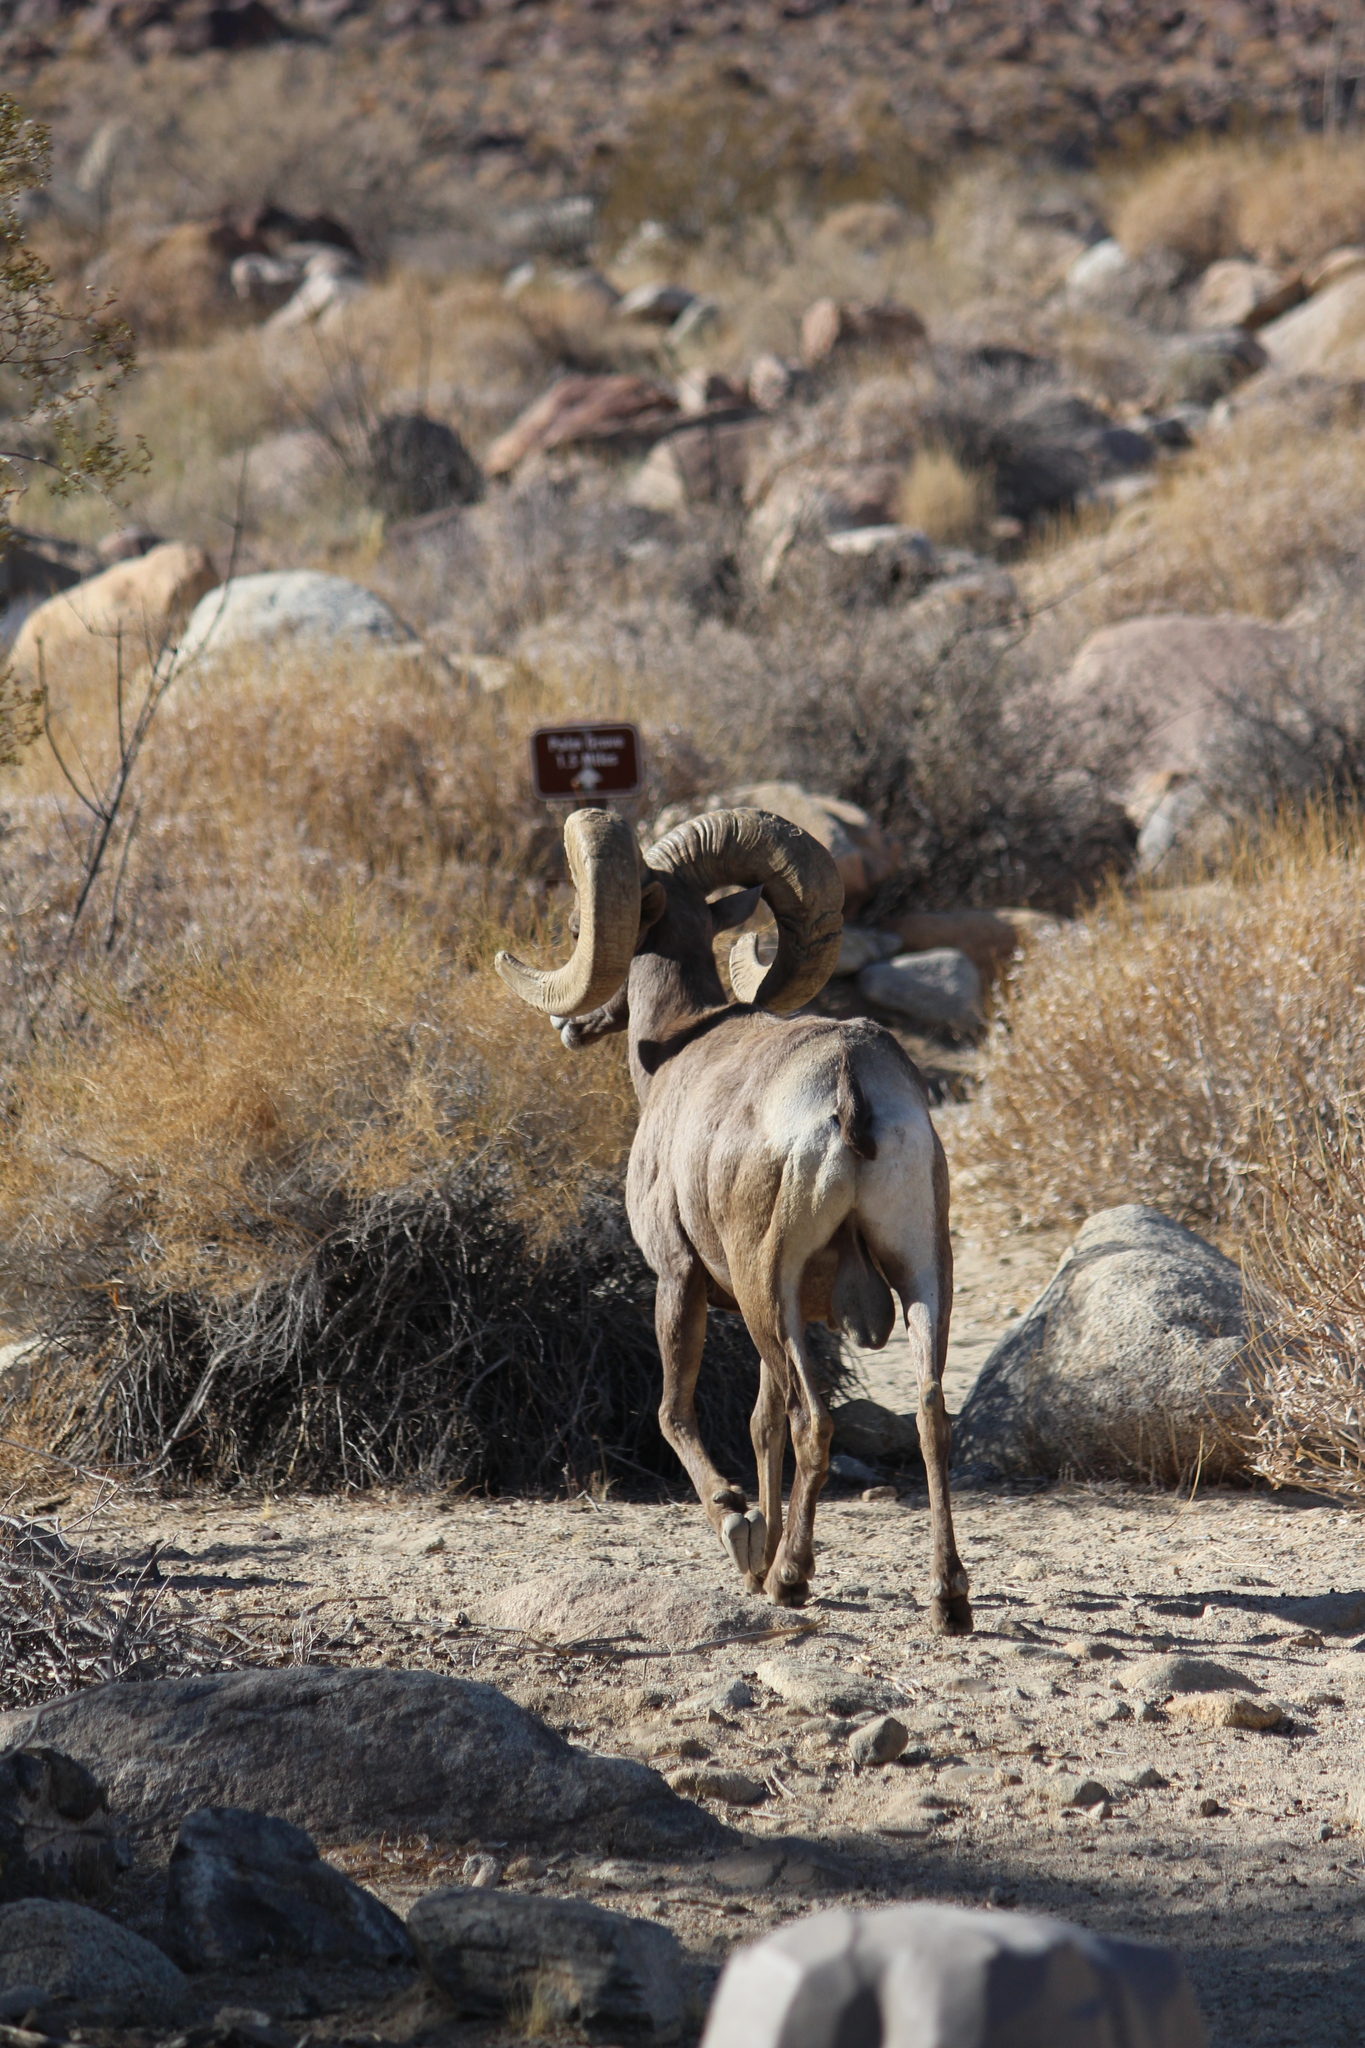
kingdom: Animalia
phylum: Chordata
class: Mammalia
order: Artiodactyla
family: Bovidae
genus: Ovis
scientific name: Ovis canadensis
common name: Bighorn sheep
